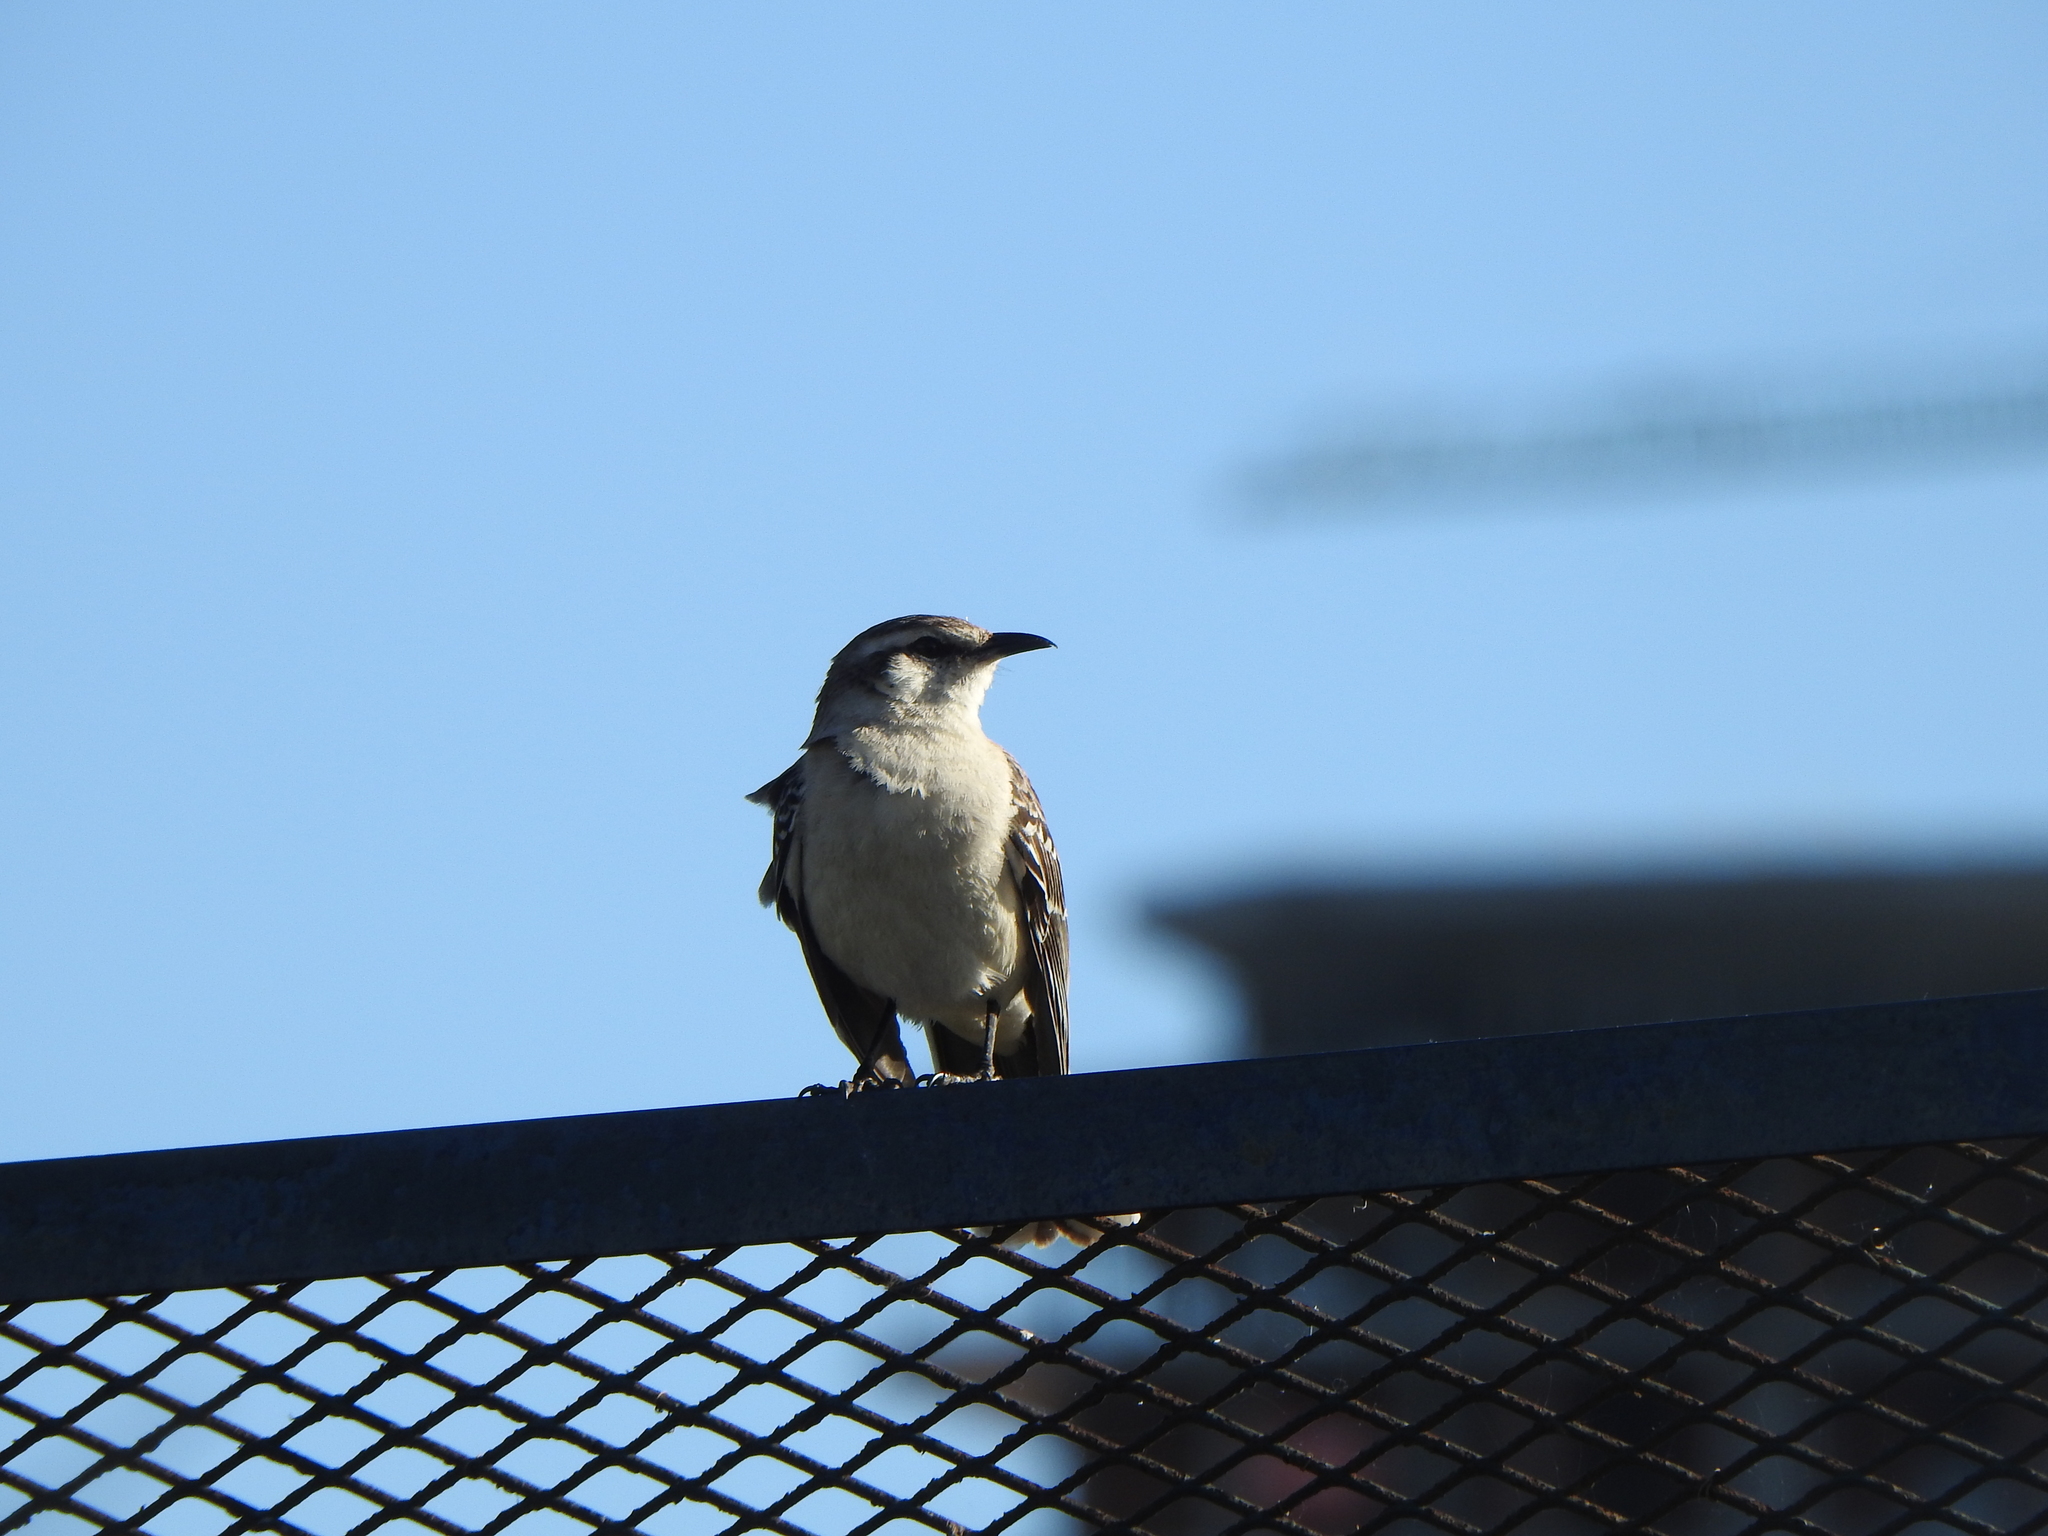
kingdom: Animalia
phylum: Chordata
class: Aves
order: Passeriformes
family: Mimidae
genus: Mimus
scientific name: Mimus saturninus
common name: Chalk-browed mockingbird
